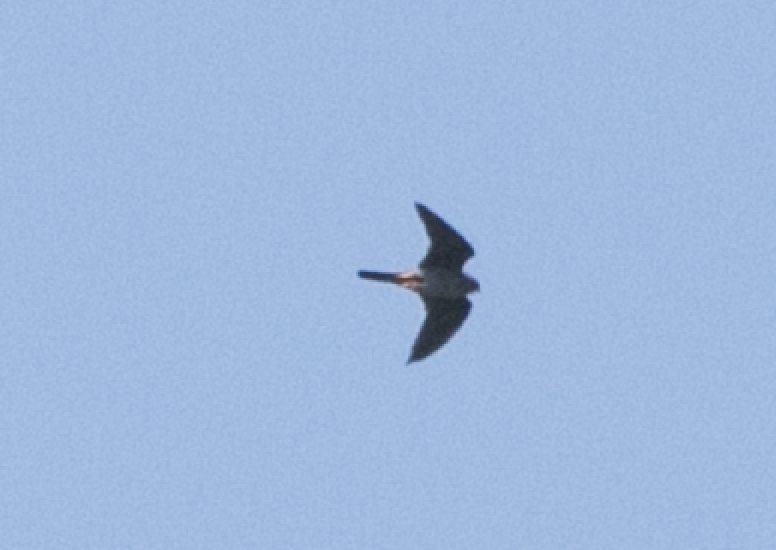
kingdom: Animalia
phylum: Chordata
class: Aves
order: Falconiformes
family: Falconidae
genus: Falco
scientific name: Falco vespertinus
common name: Red-footed falcon
